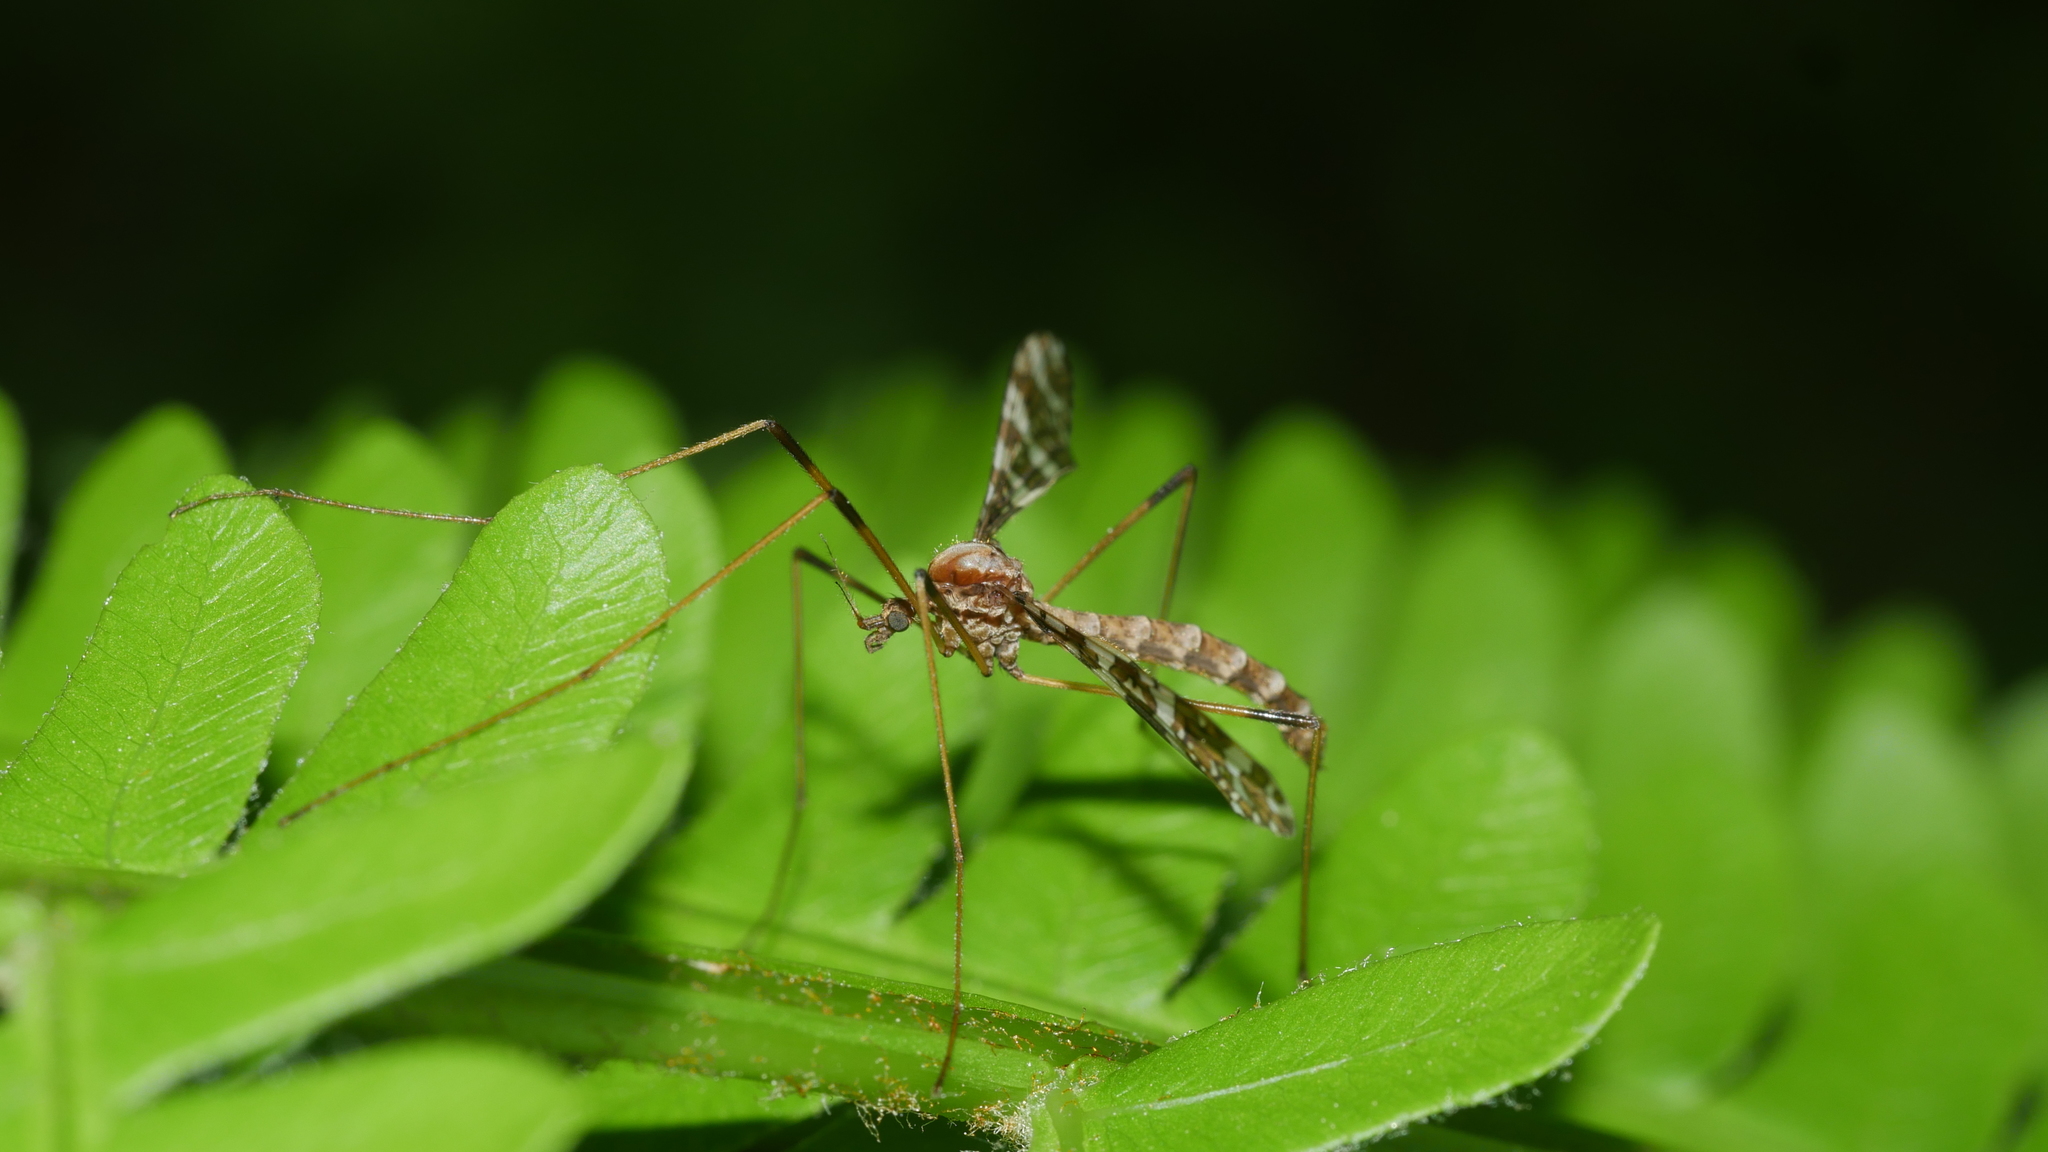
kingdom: Animalia
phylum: Arthropoda
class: Insecta
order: Diptera
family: Limoniidae
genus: Epiphragma
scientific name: Epiphragma fasciapenne
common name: Band-winged crane fly
